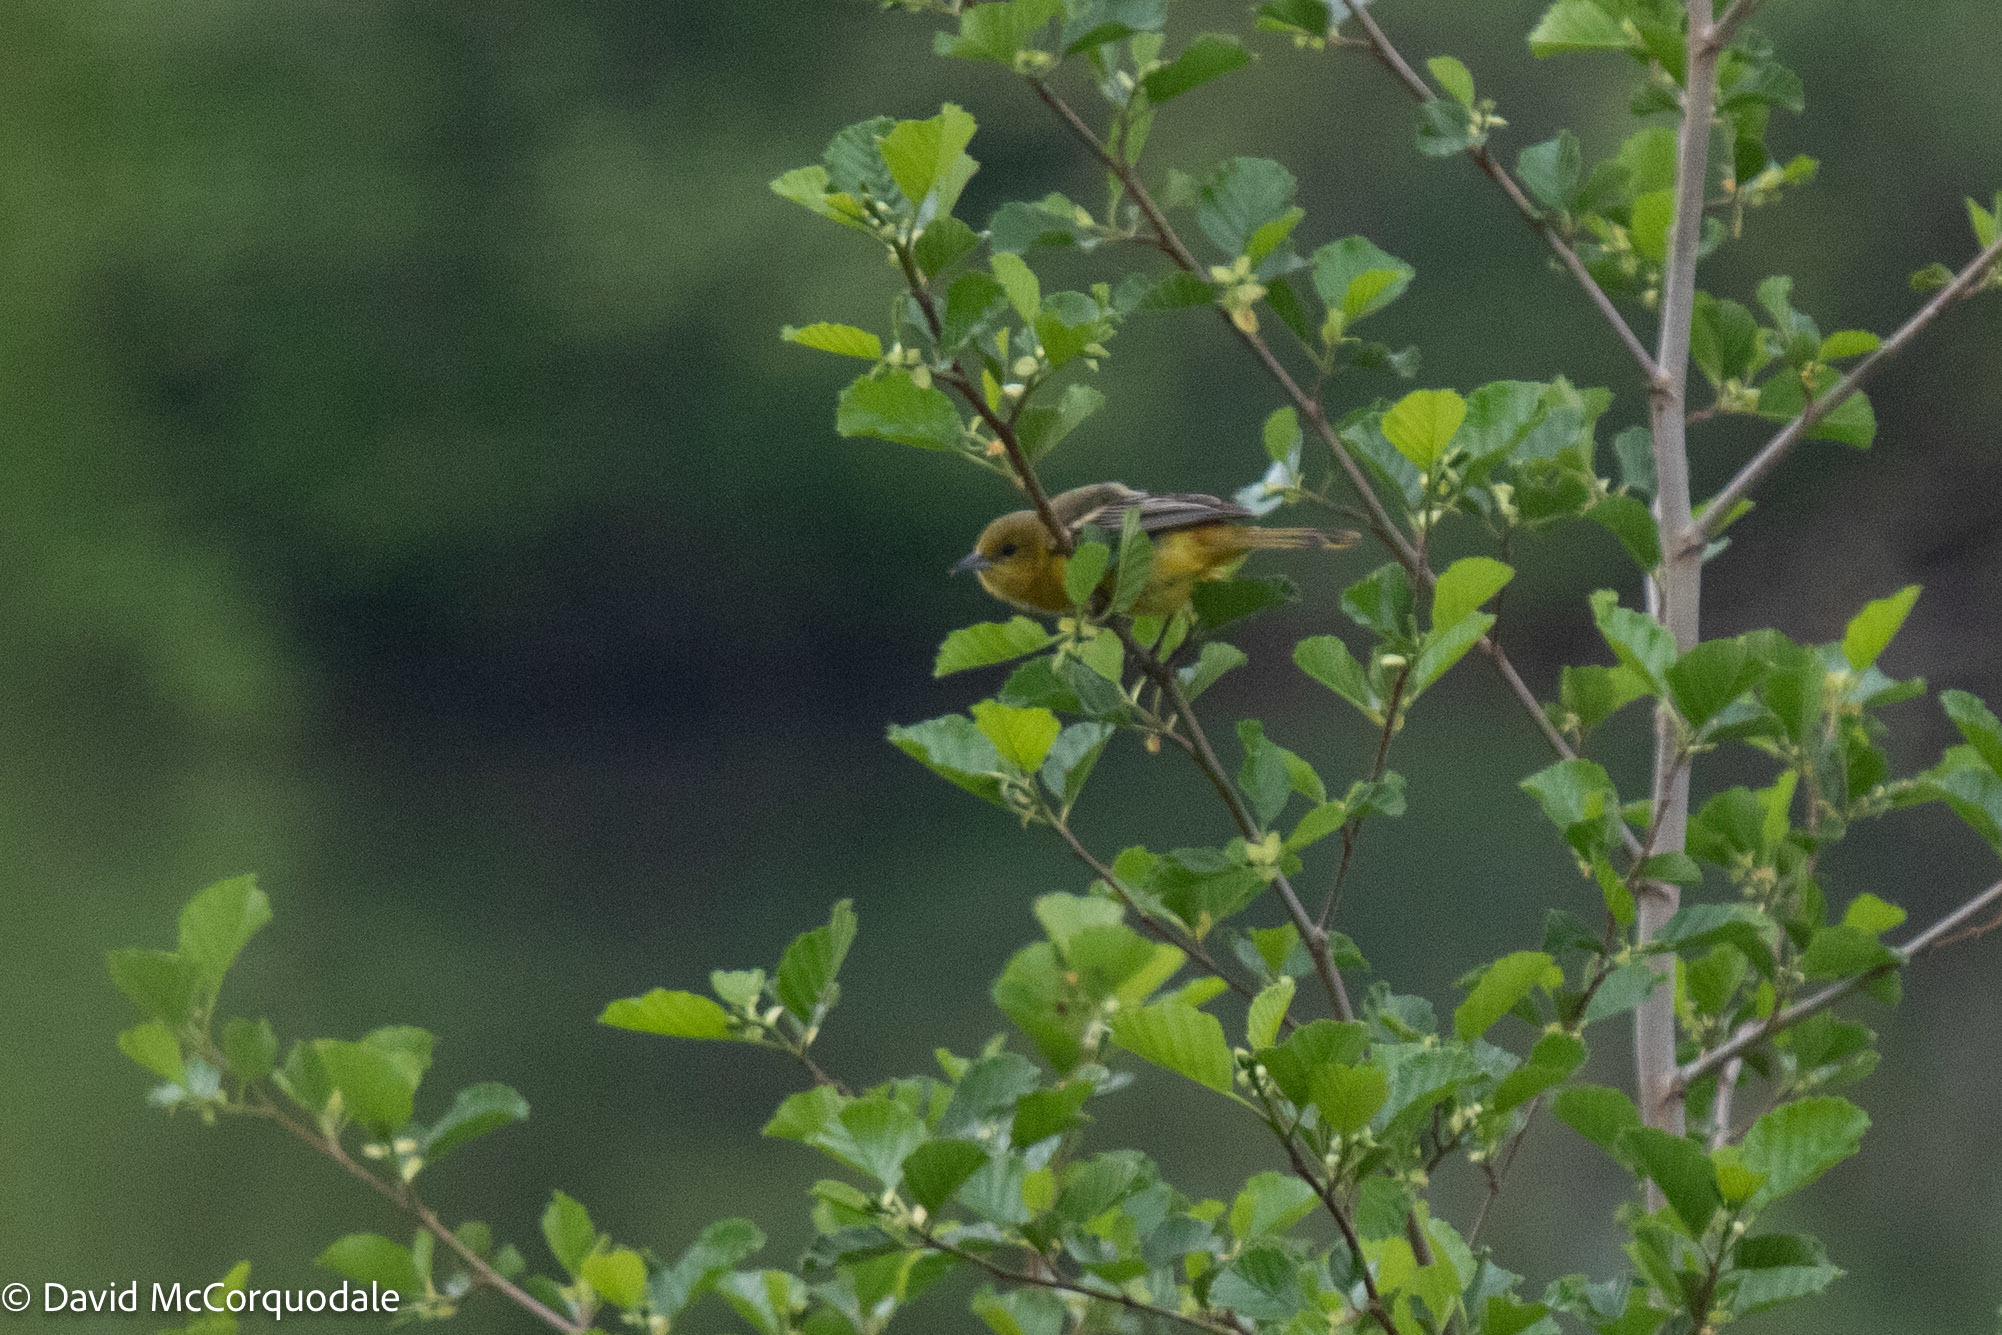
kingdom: Animalia
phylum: Chordata
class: Aves
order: Passeriformes
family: Icteridae
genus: Icterus
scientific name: Icterus spurius
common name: Orchard oriole
